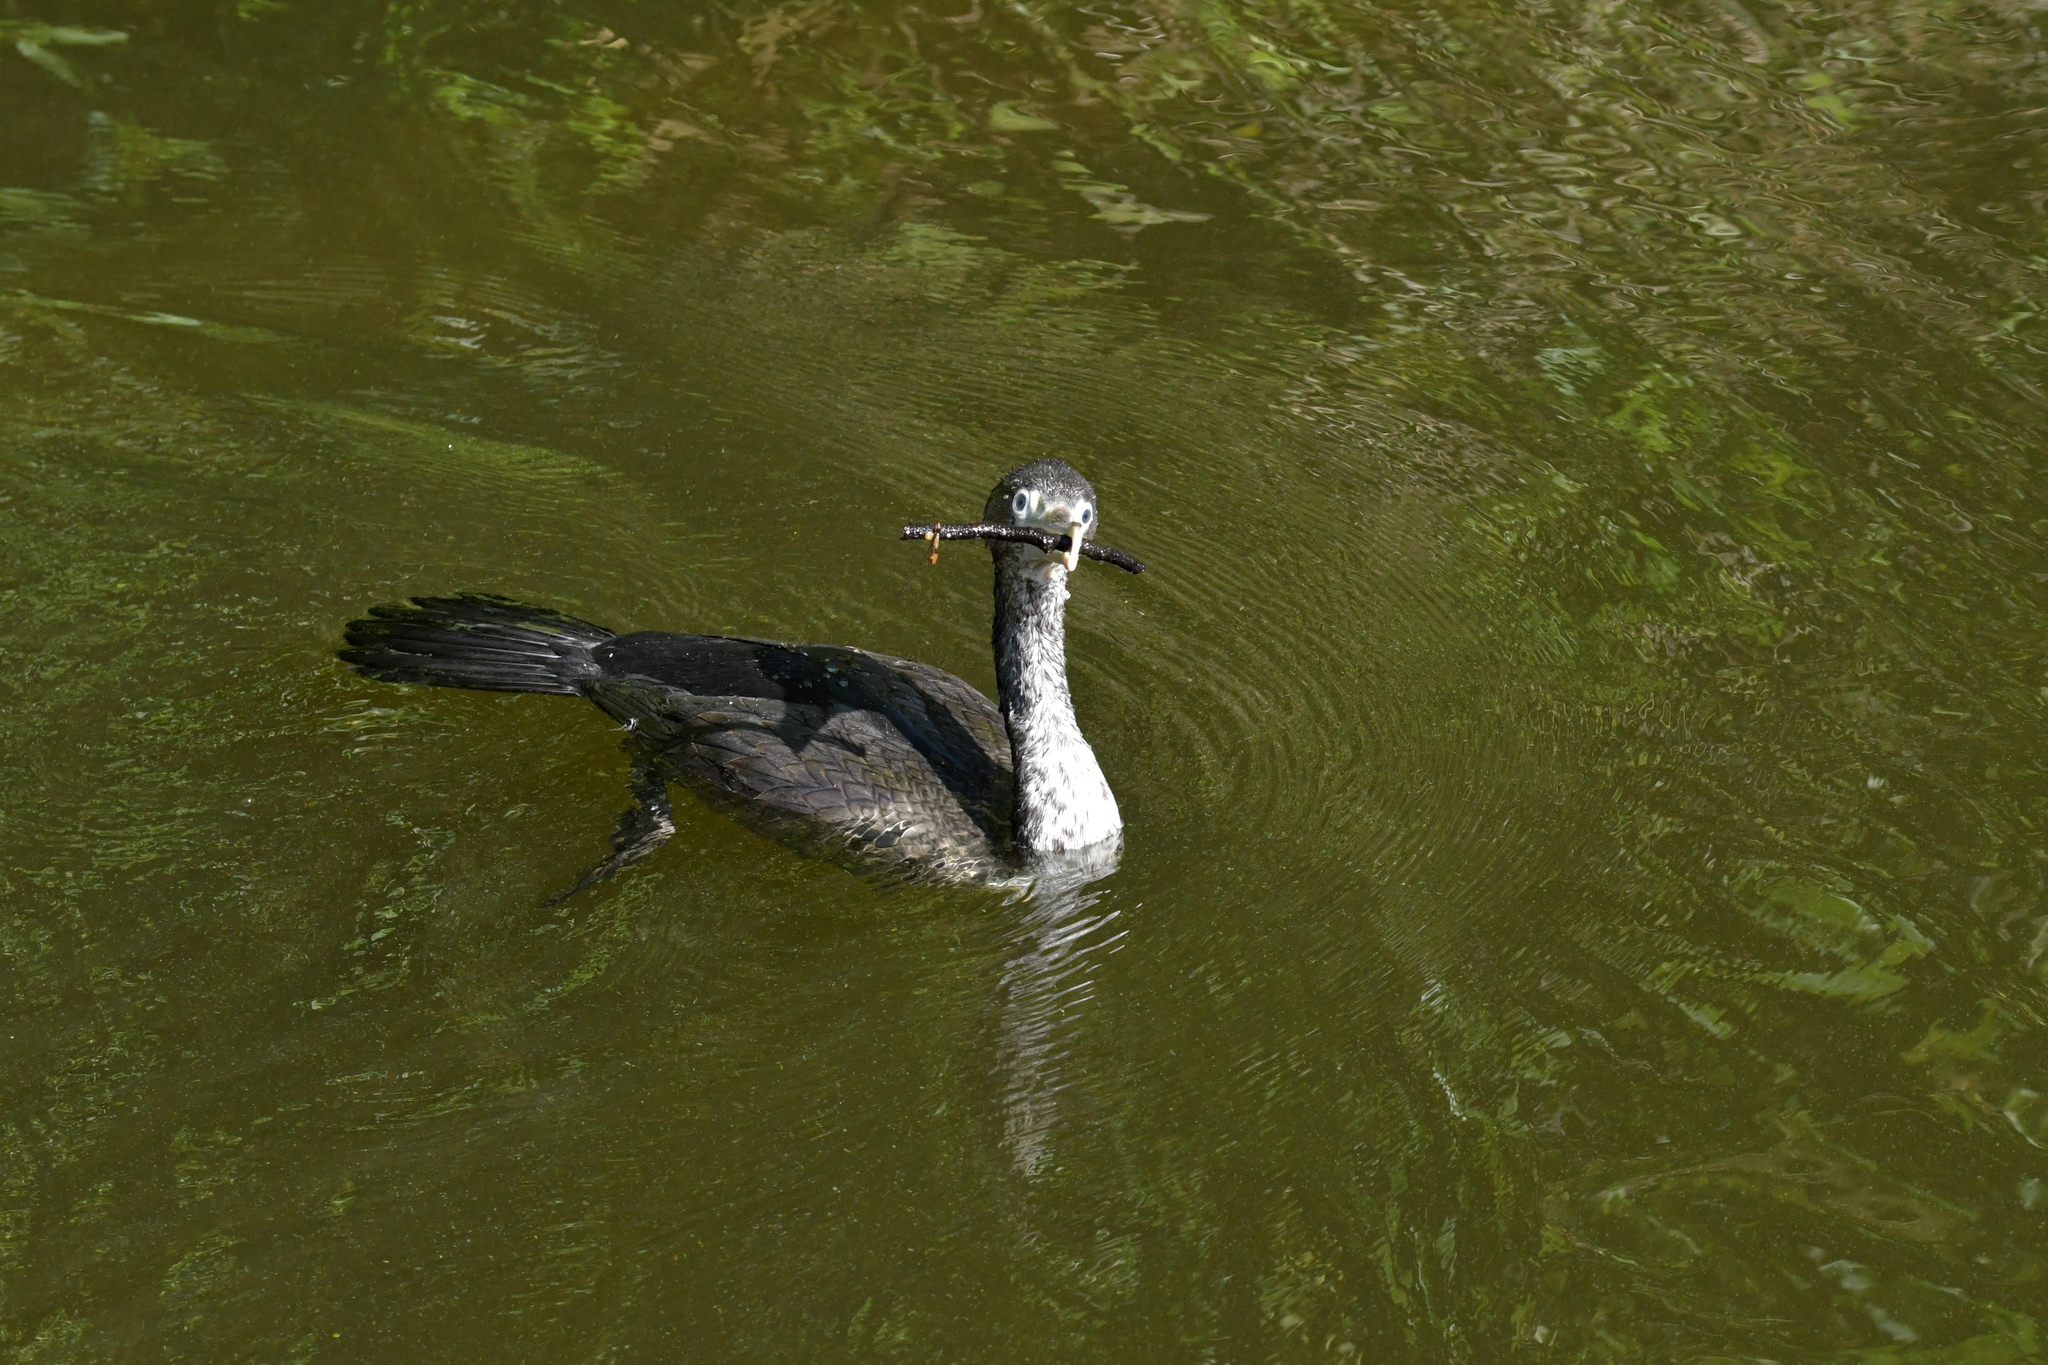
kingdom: Animalia
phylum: Chordata
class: Aves
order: Suliformes
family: Phalacrocoracidae
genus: Phalacrocorax
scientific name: Phalacrocorax varius
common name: Pied cormorant
